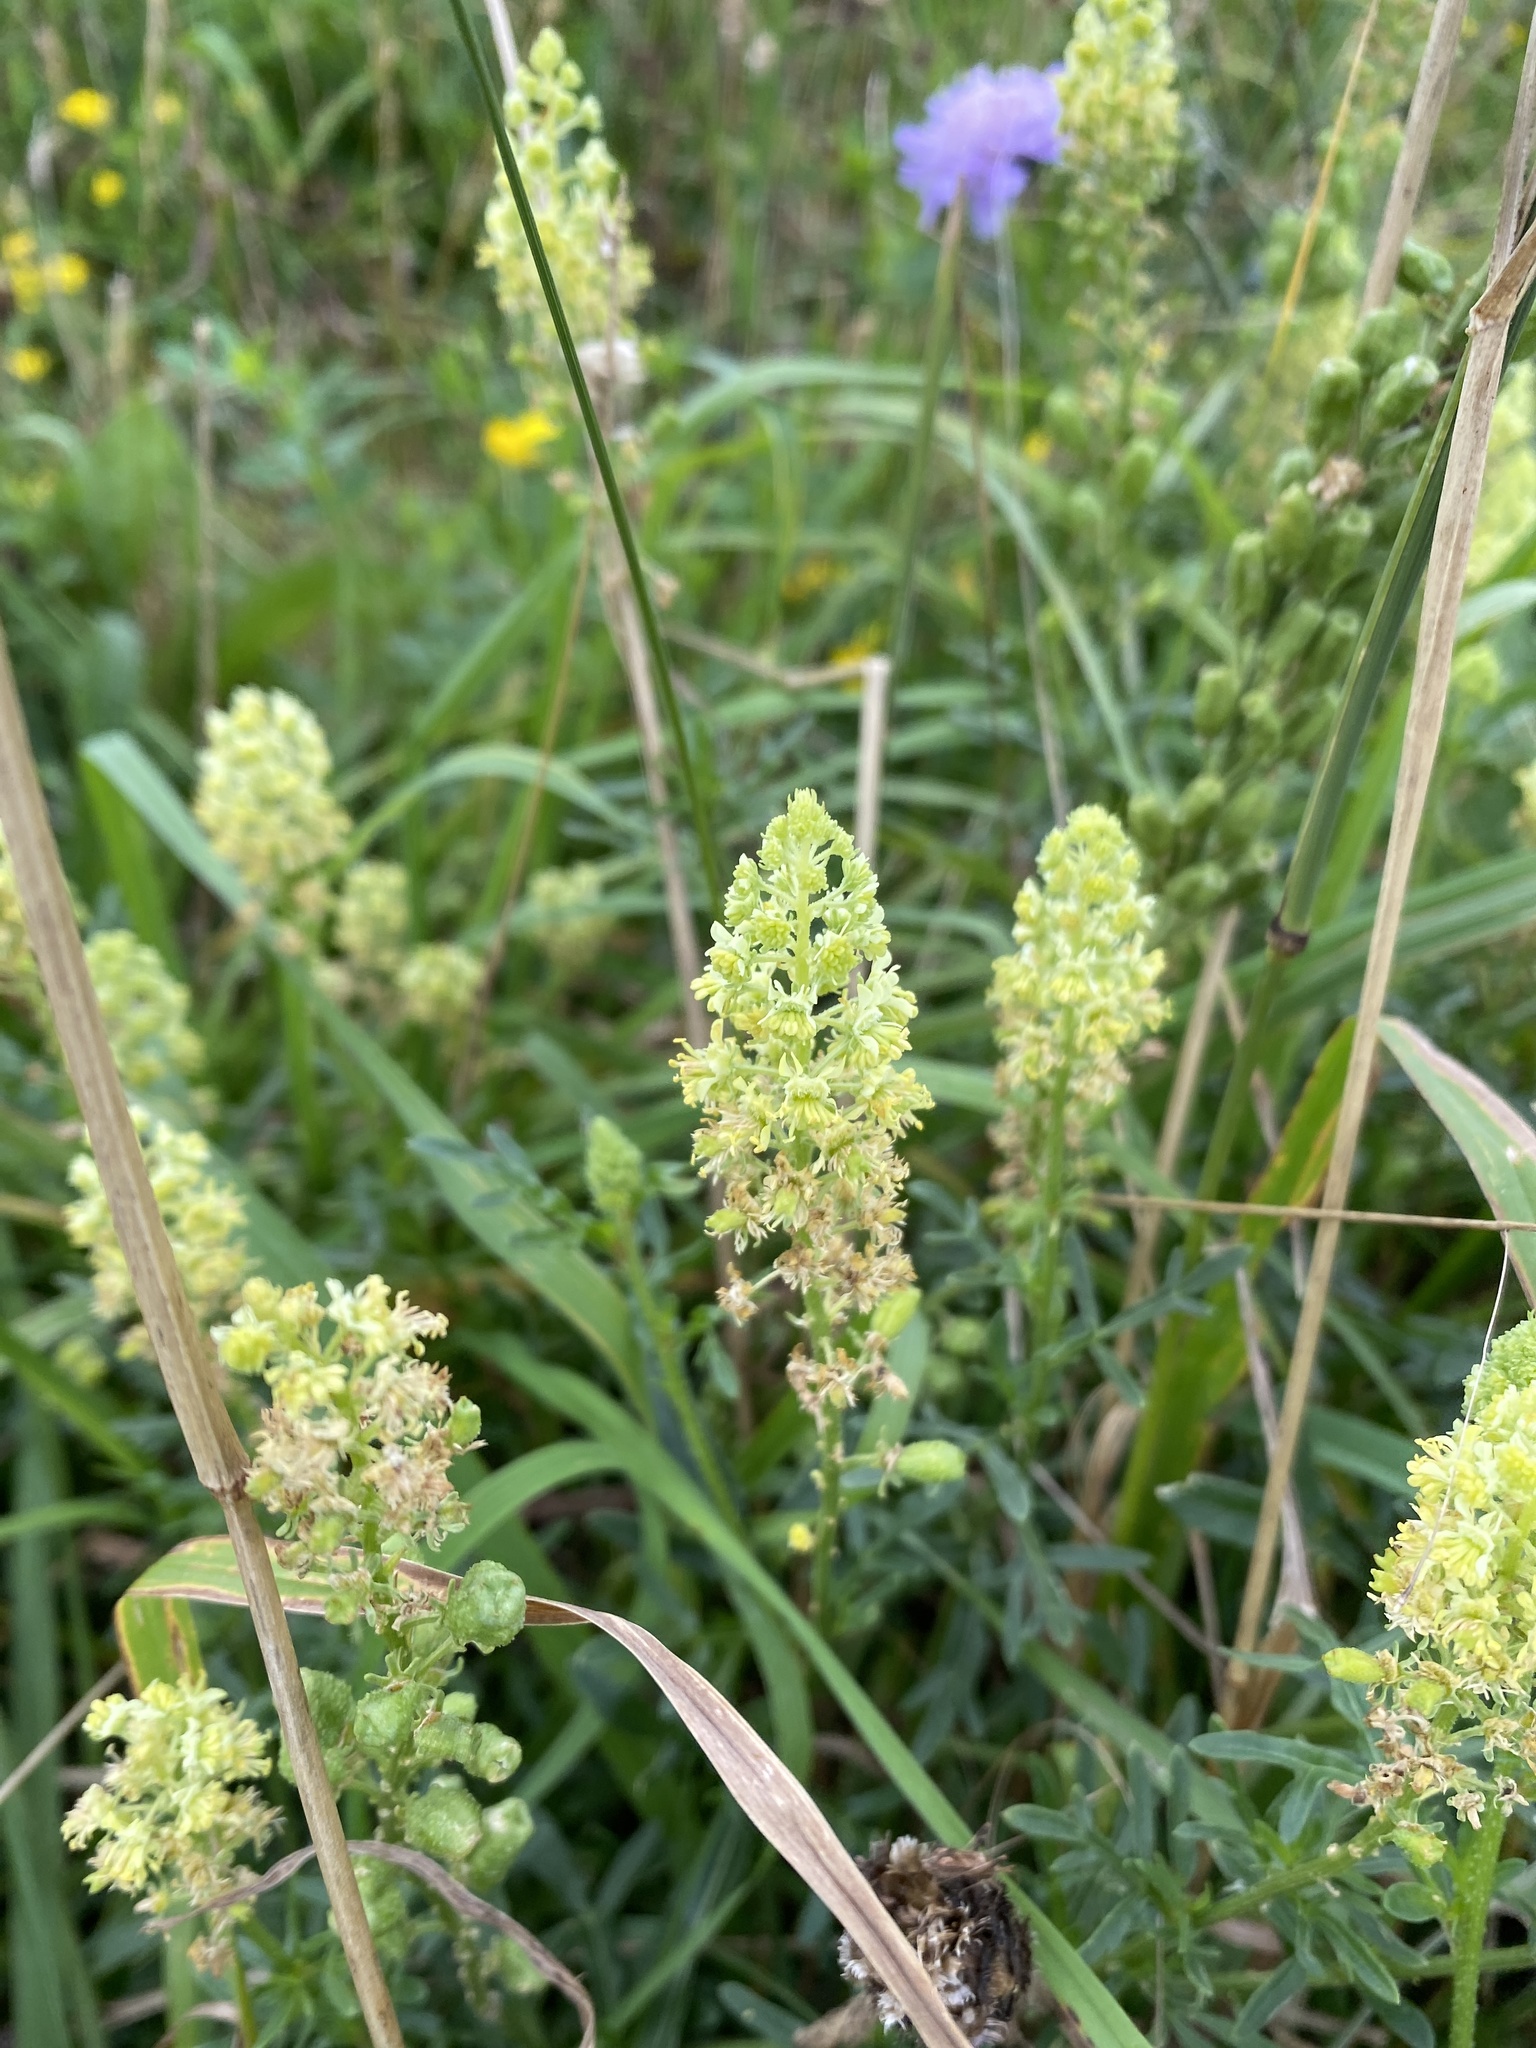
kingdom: Plantae
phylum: Tracheophyta
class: Magnoliopsida
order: Brassicales
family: Resedaceae
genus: Reseda
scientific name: Reseda lutea
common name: Wild mignonette
